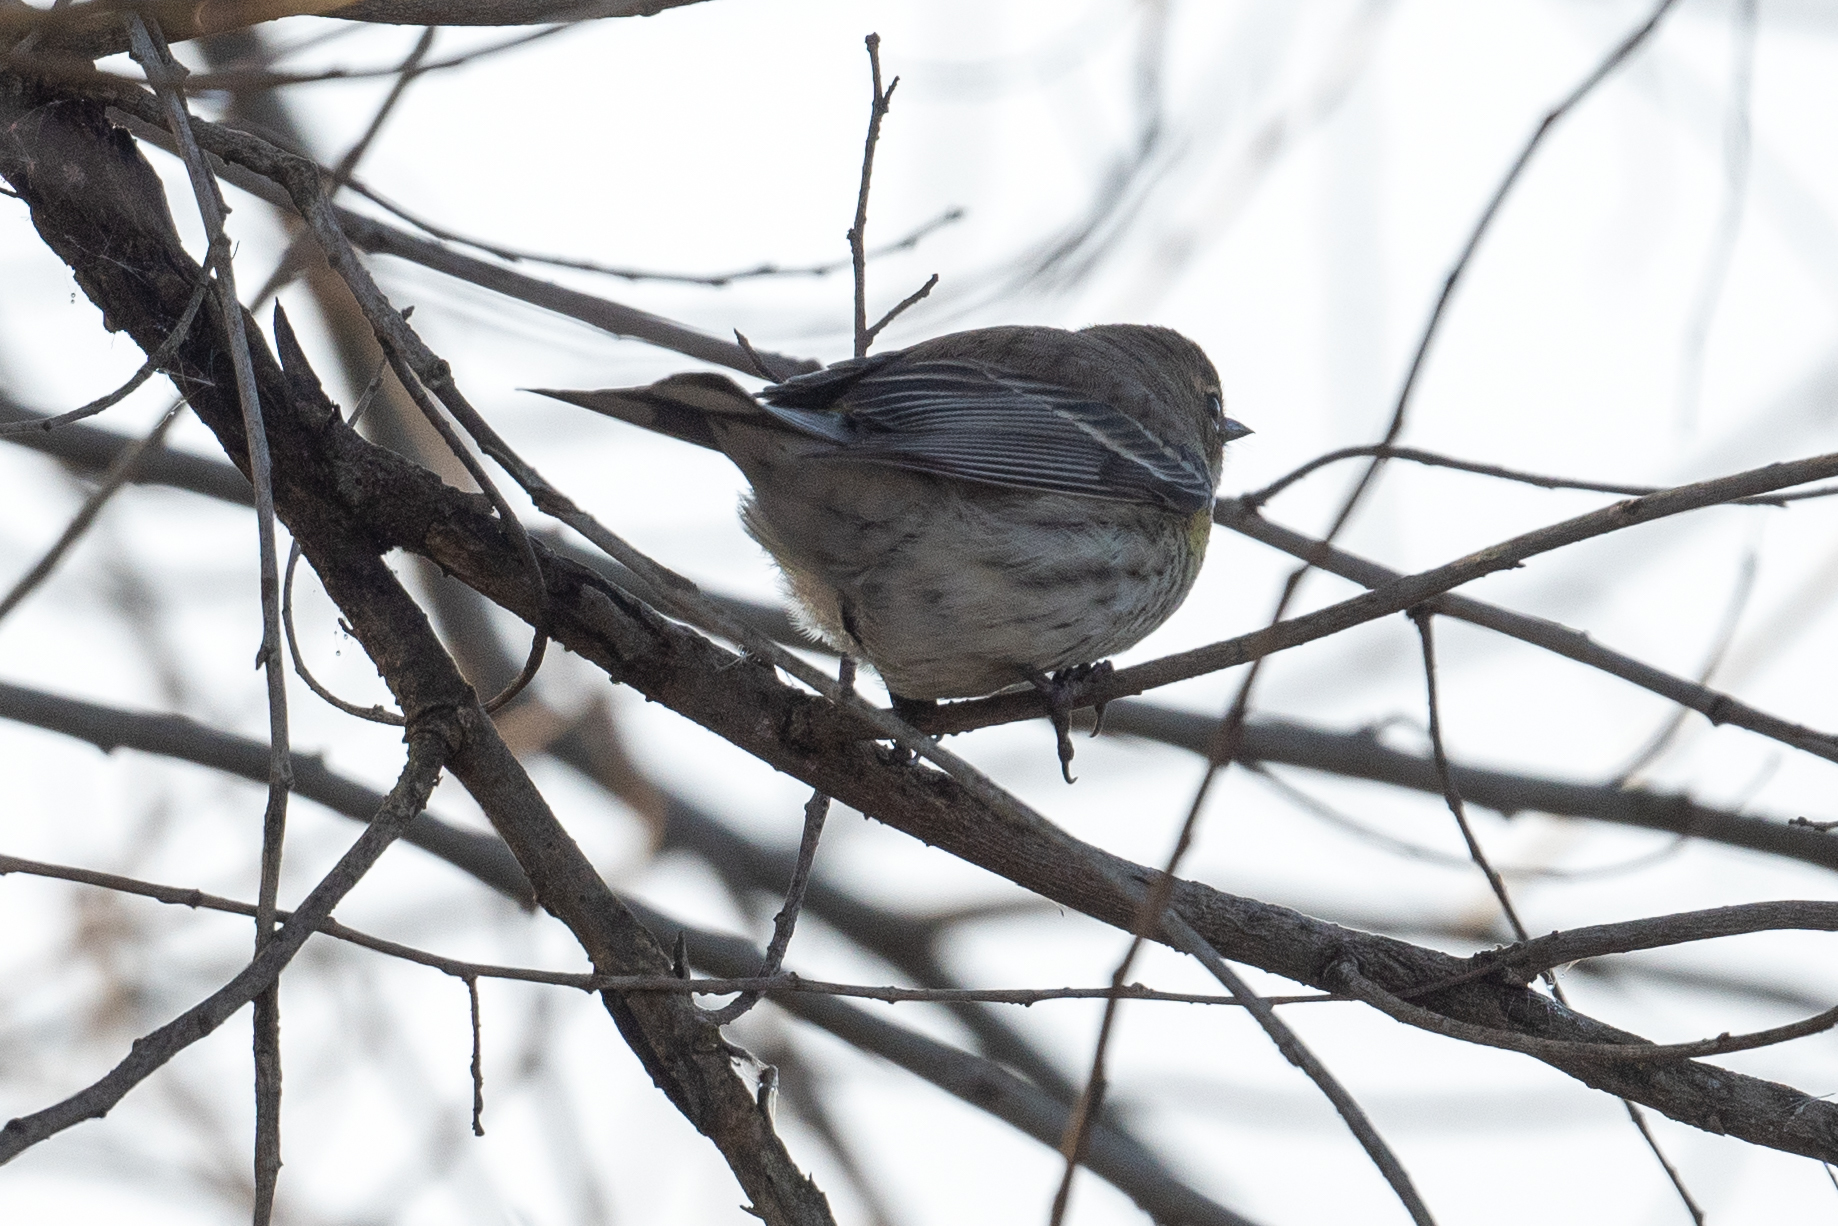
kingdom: Animalia
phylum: Chordata
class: Aves
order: Passeriformes
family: Parulidae
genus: Setophaga
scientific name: Setophaga coronata
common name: Myrtle warbler
